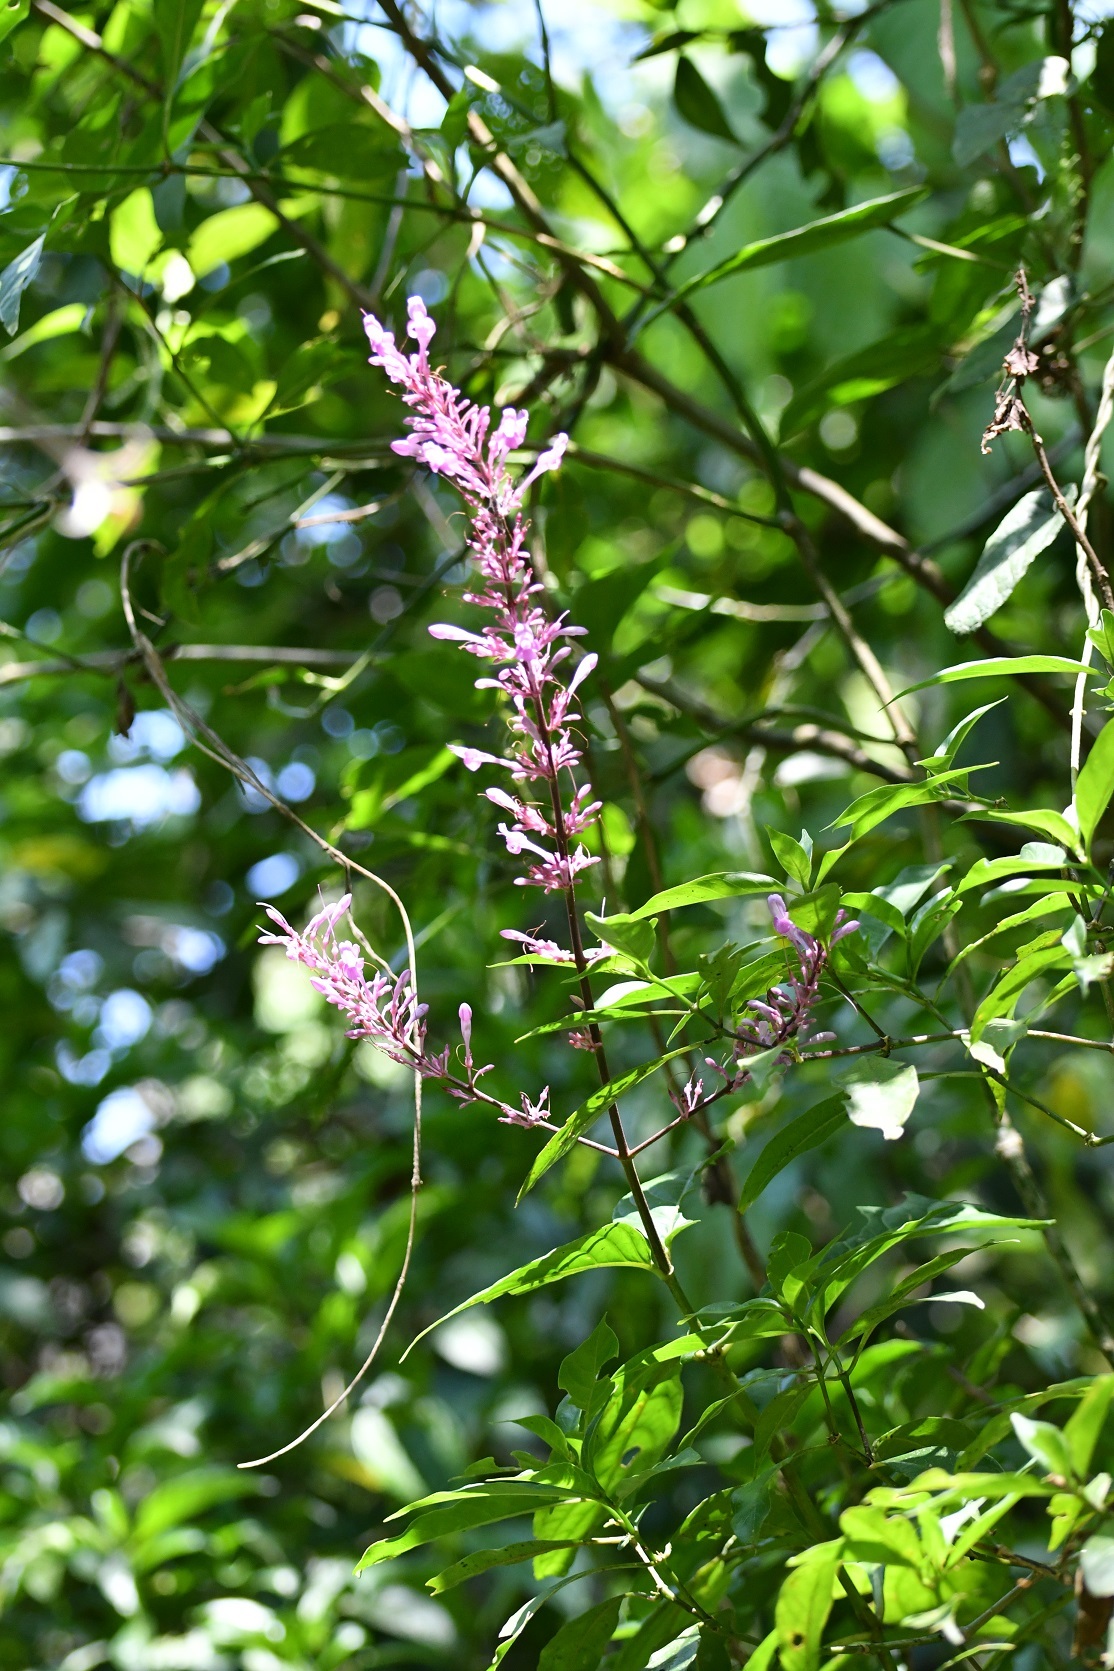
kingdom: Plantae
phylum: Tracheophyta
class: Magnoliopsida
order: Lamiales
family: Acanthaceae
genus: Odontonema
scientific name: Odontonema callistachyum
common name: Firespike
